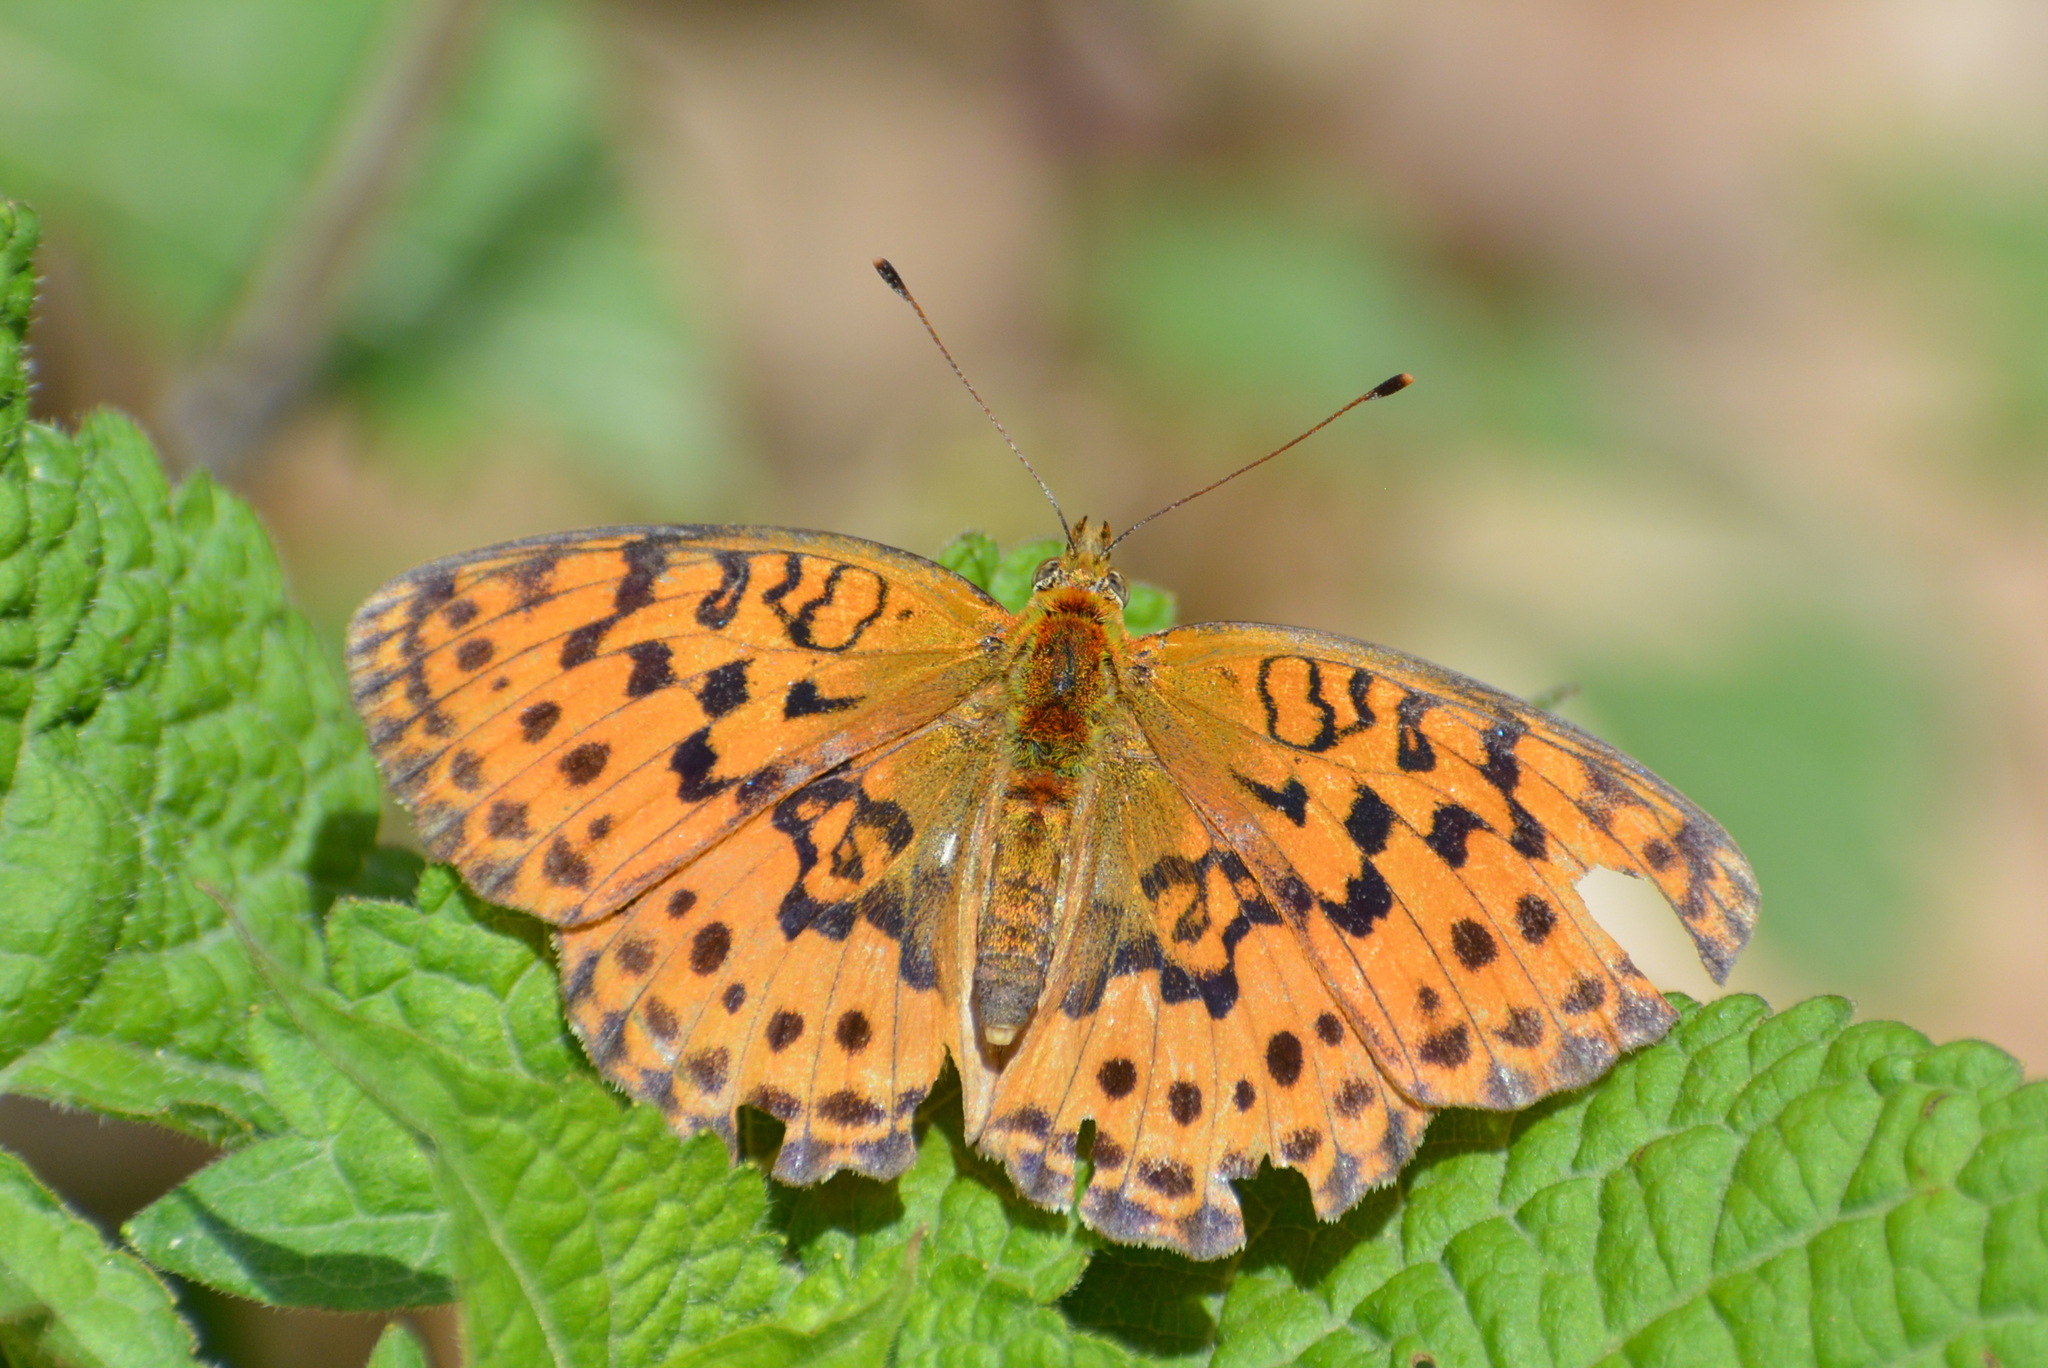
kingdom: Animalia
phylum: Arthropoda
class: Insecta
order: Lepidoptera
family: Nymphalidae
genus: Brenthis
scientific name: Brenthis daphne
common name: Marbled fritillary
